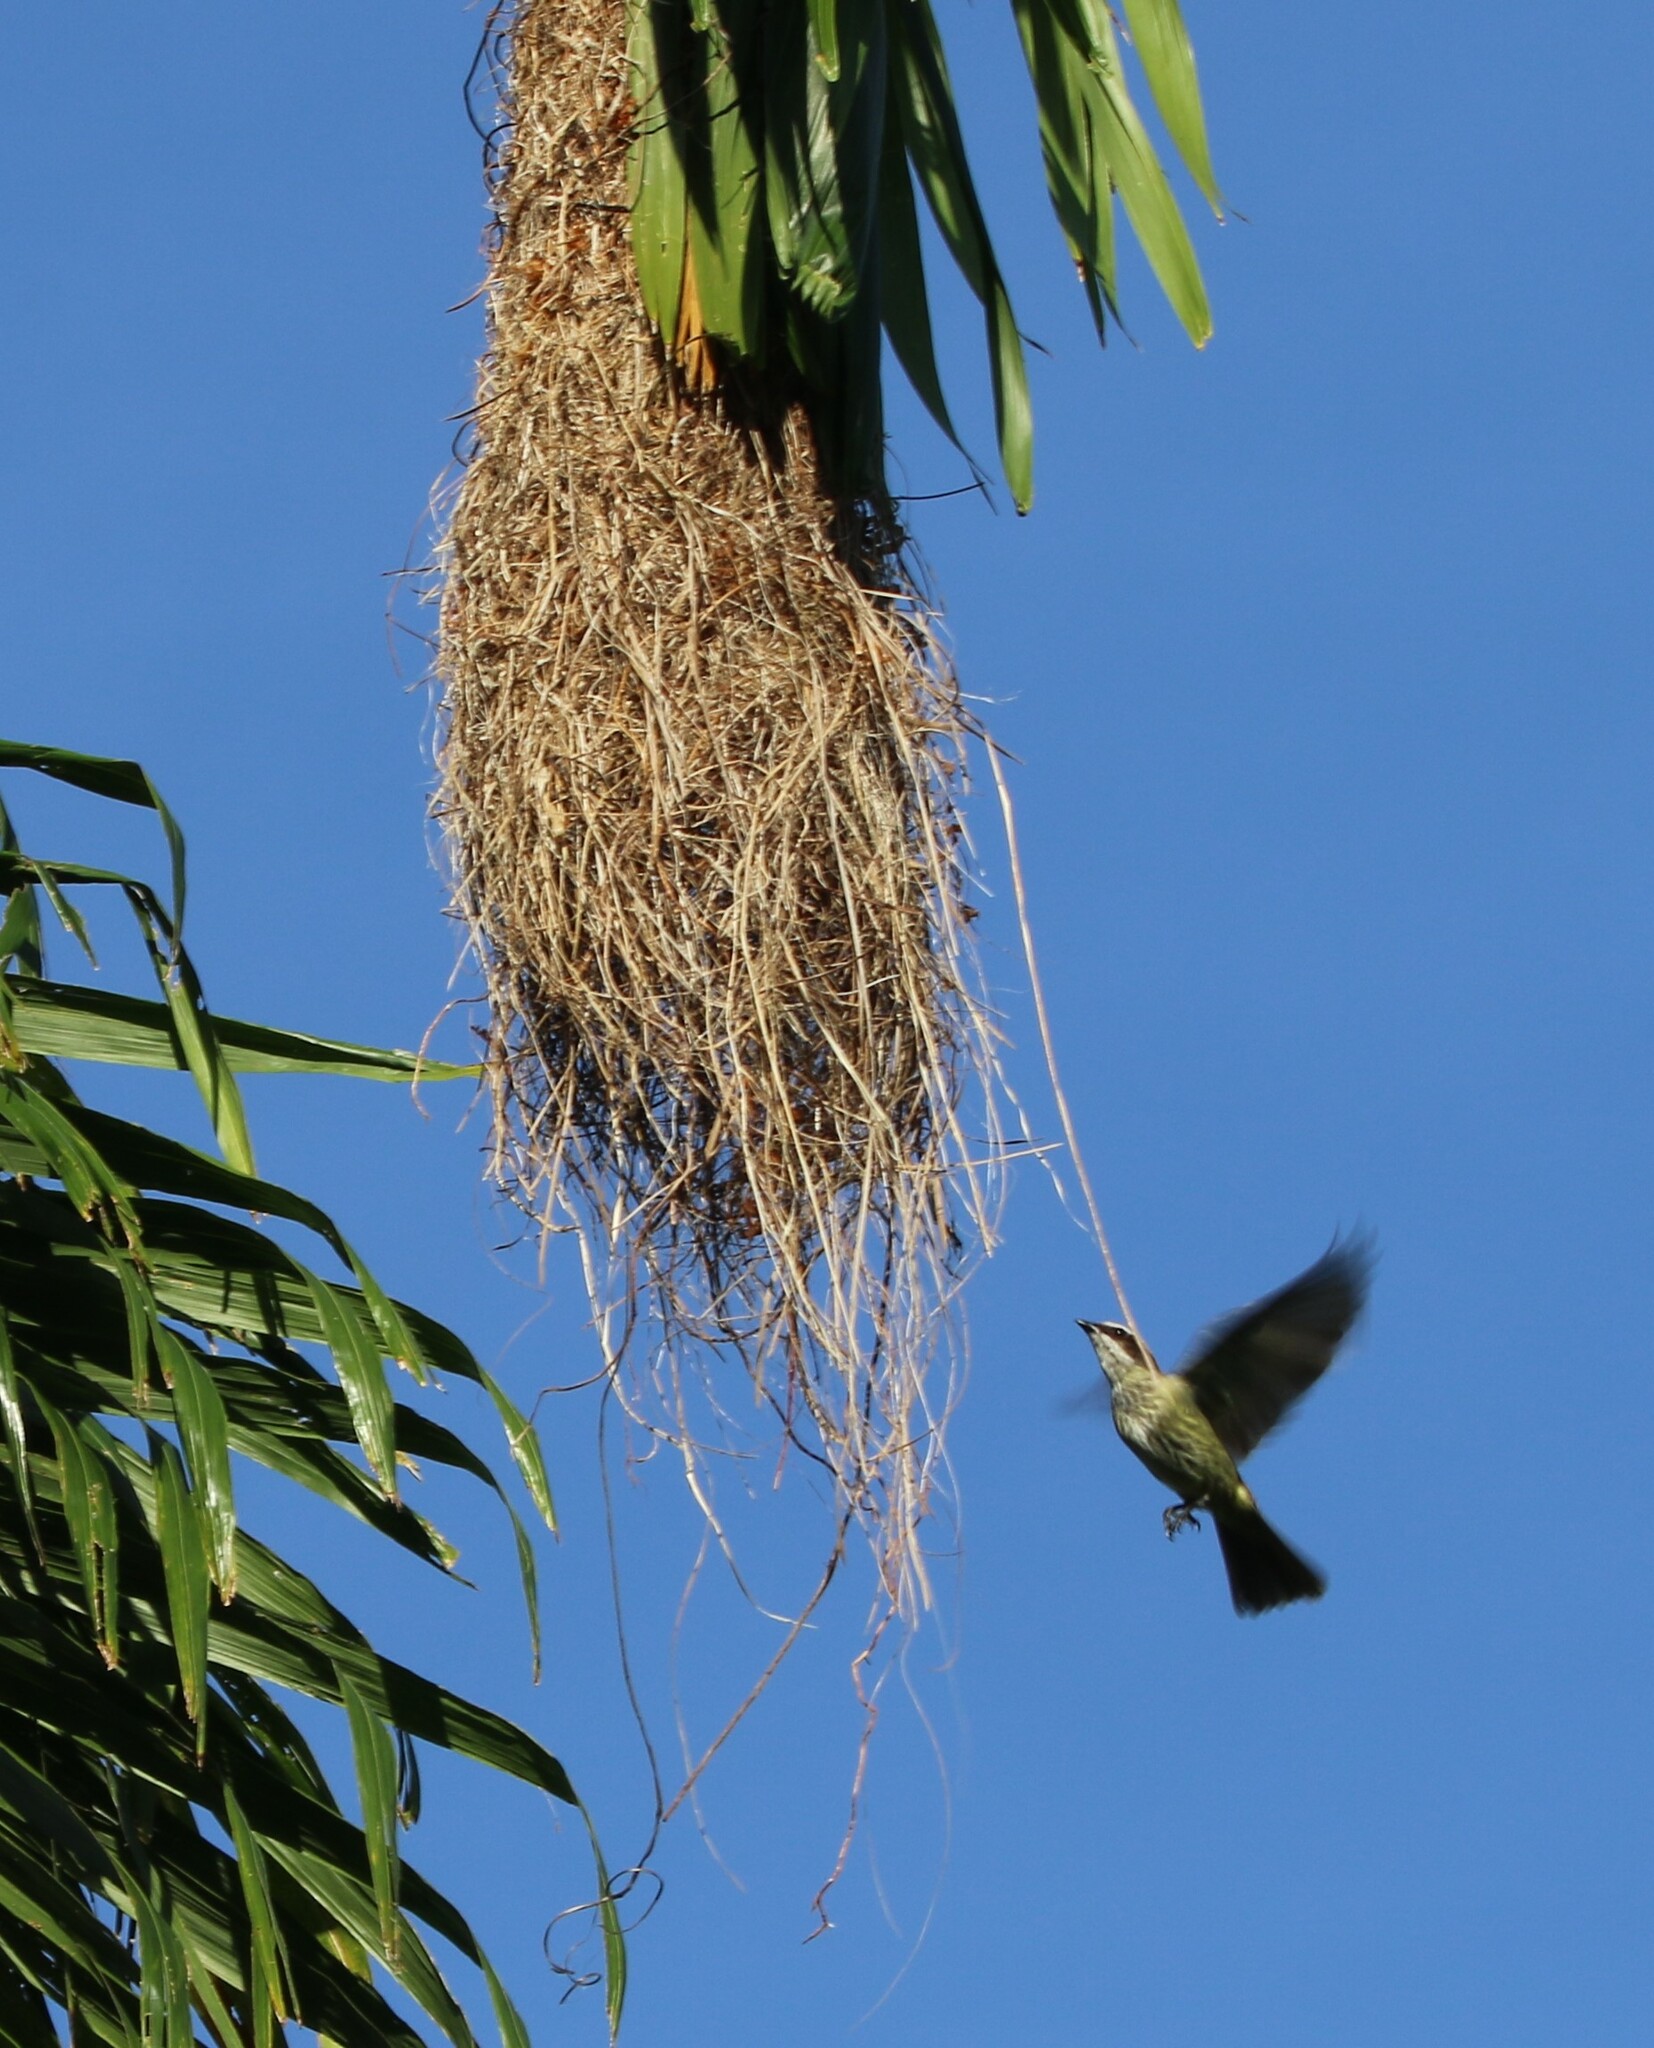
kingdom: Animalia
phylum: Chordata
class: Aves
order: Passeriformes
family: Tyrannidae
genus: Legatus
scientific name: Legatus leucophaius
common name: Piratic flycatcher
